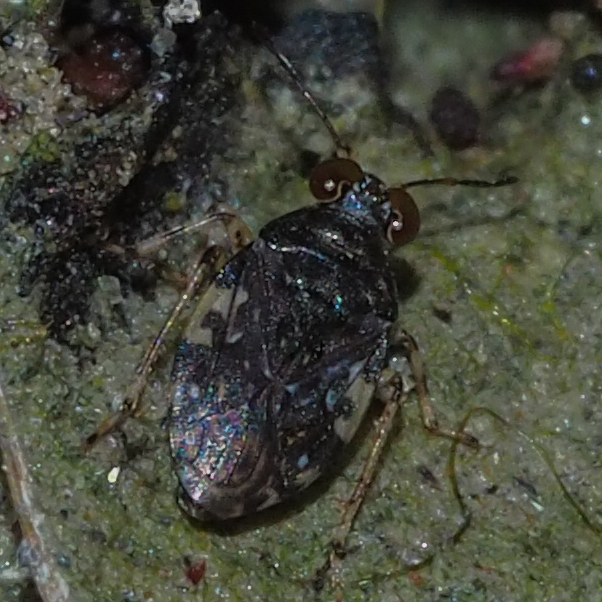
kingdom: Animalia
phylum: Arthropoda
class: Insecta
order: Hemiptera
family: Saldidae
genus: Saldula
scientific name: Saldula c-album
